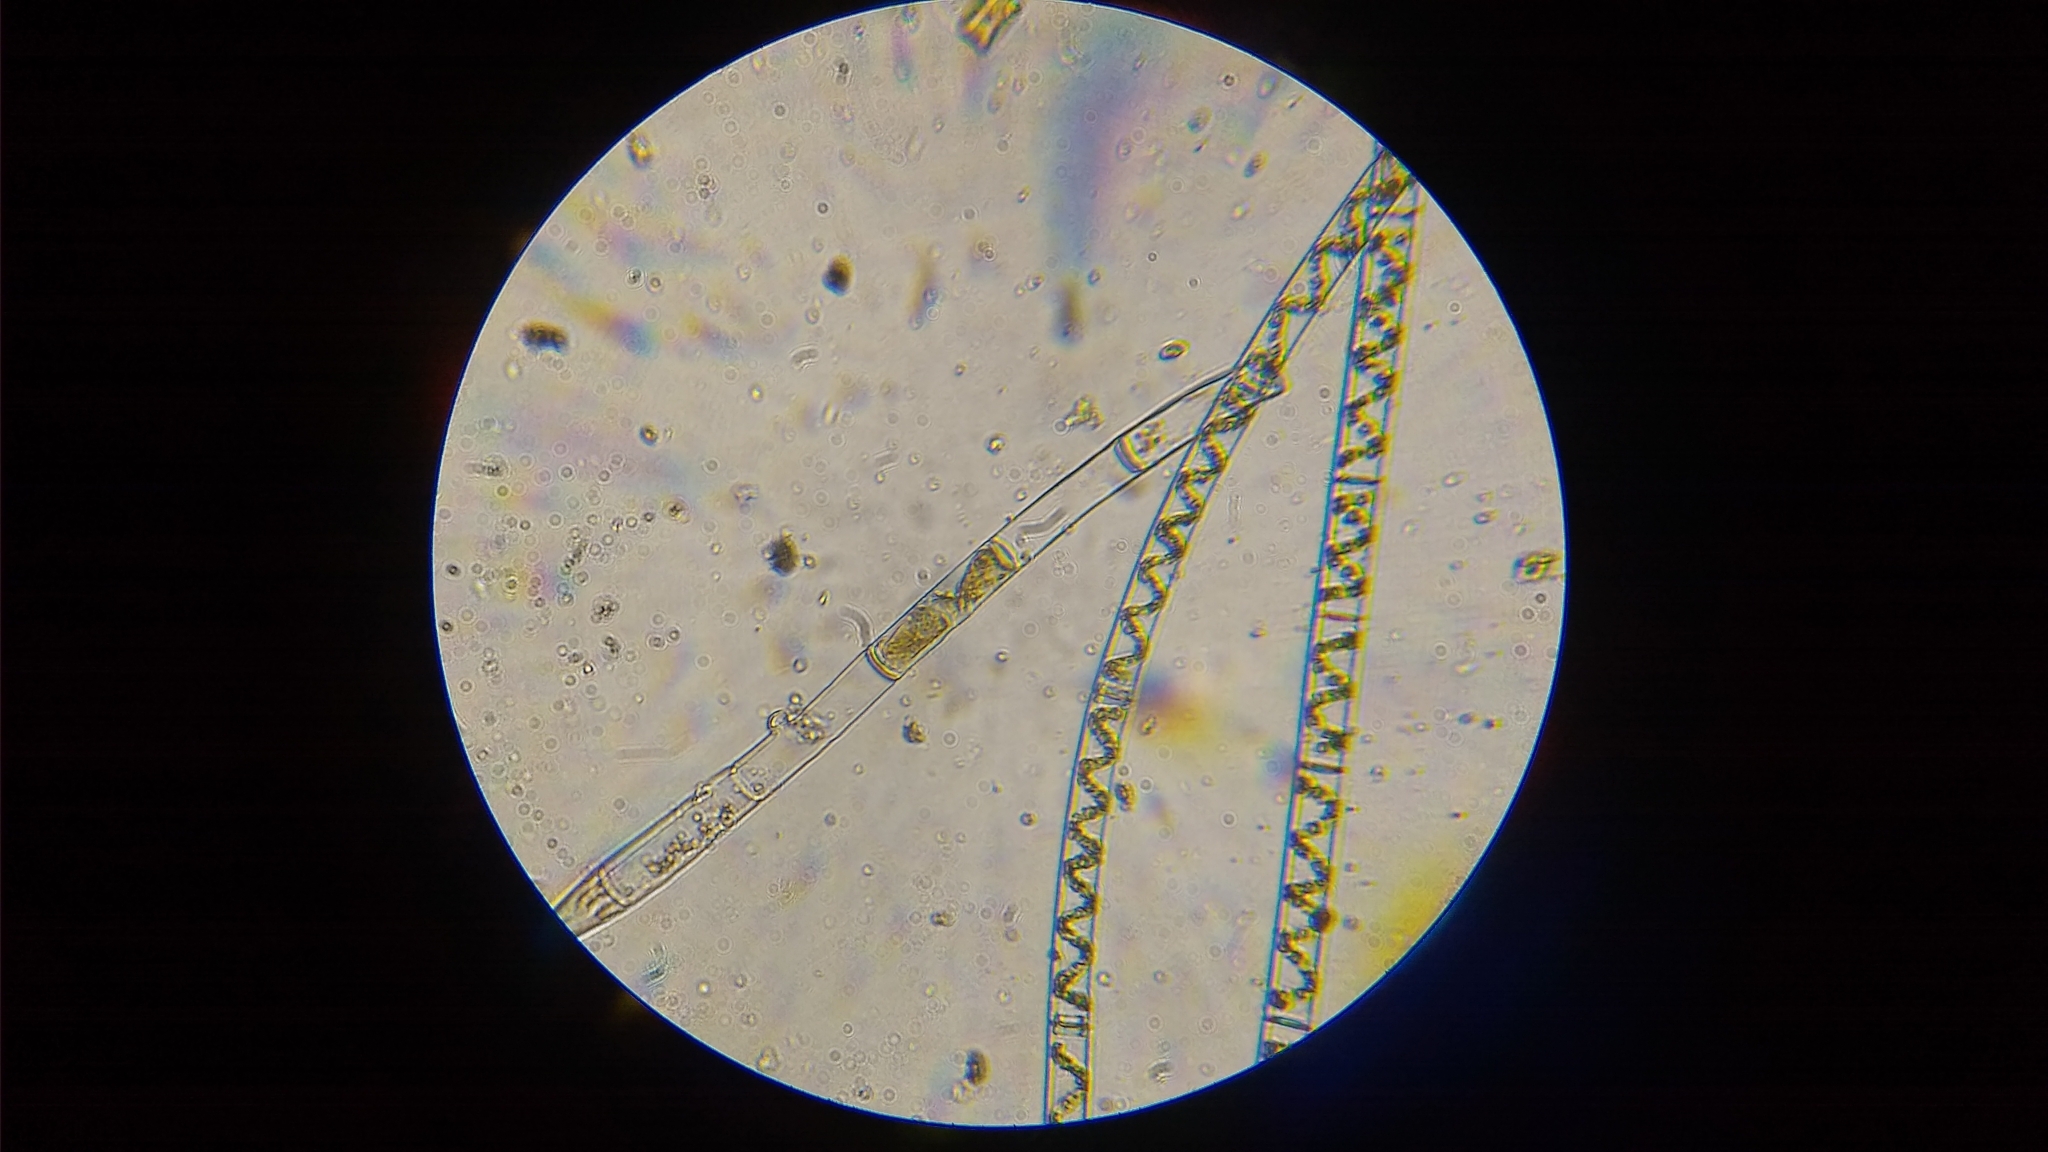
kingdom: Plantae
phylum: Charophyta
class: Zygnematophyceae
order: Zygnematales
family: Zygnemataceae
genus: Spirogyra
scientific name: Spirogyra
